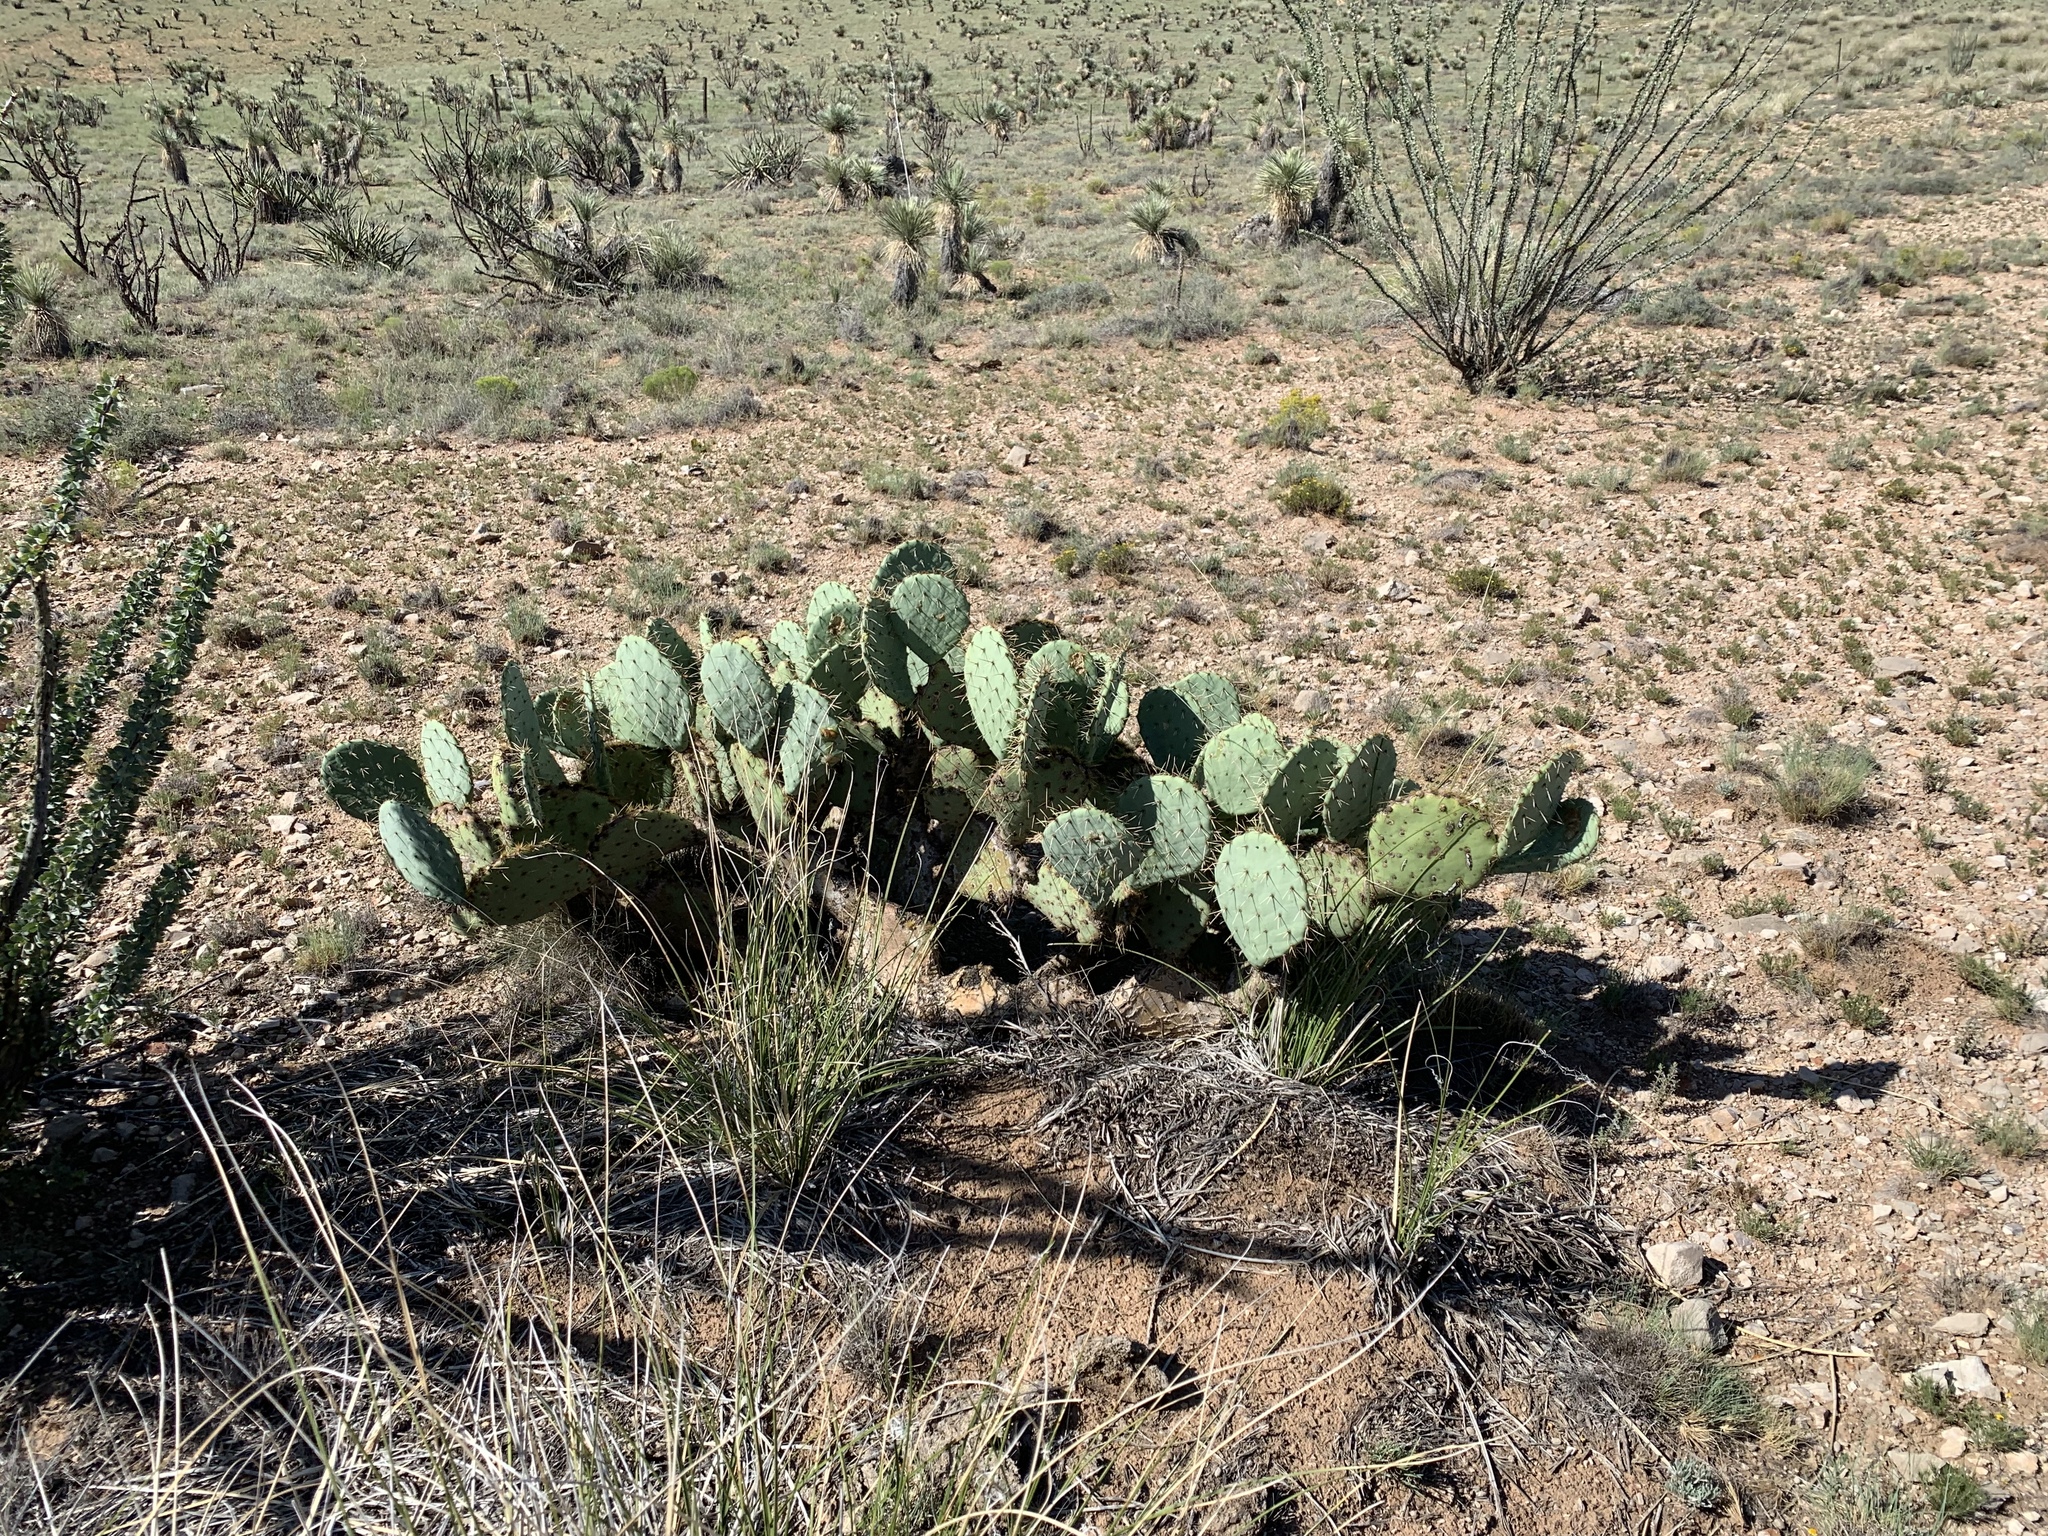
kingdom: Plantae
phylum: Tracheophyta
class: Magnoliopsida
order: Caryophyllales
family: Cactaceae
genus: Opuntia
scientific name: Opuntia engelmannii
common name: Cactus-apple
